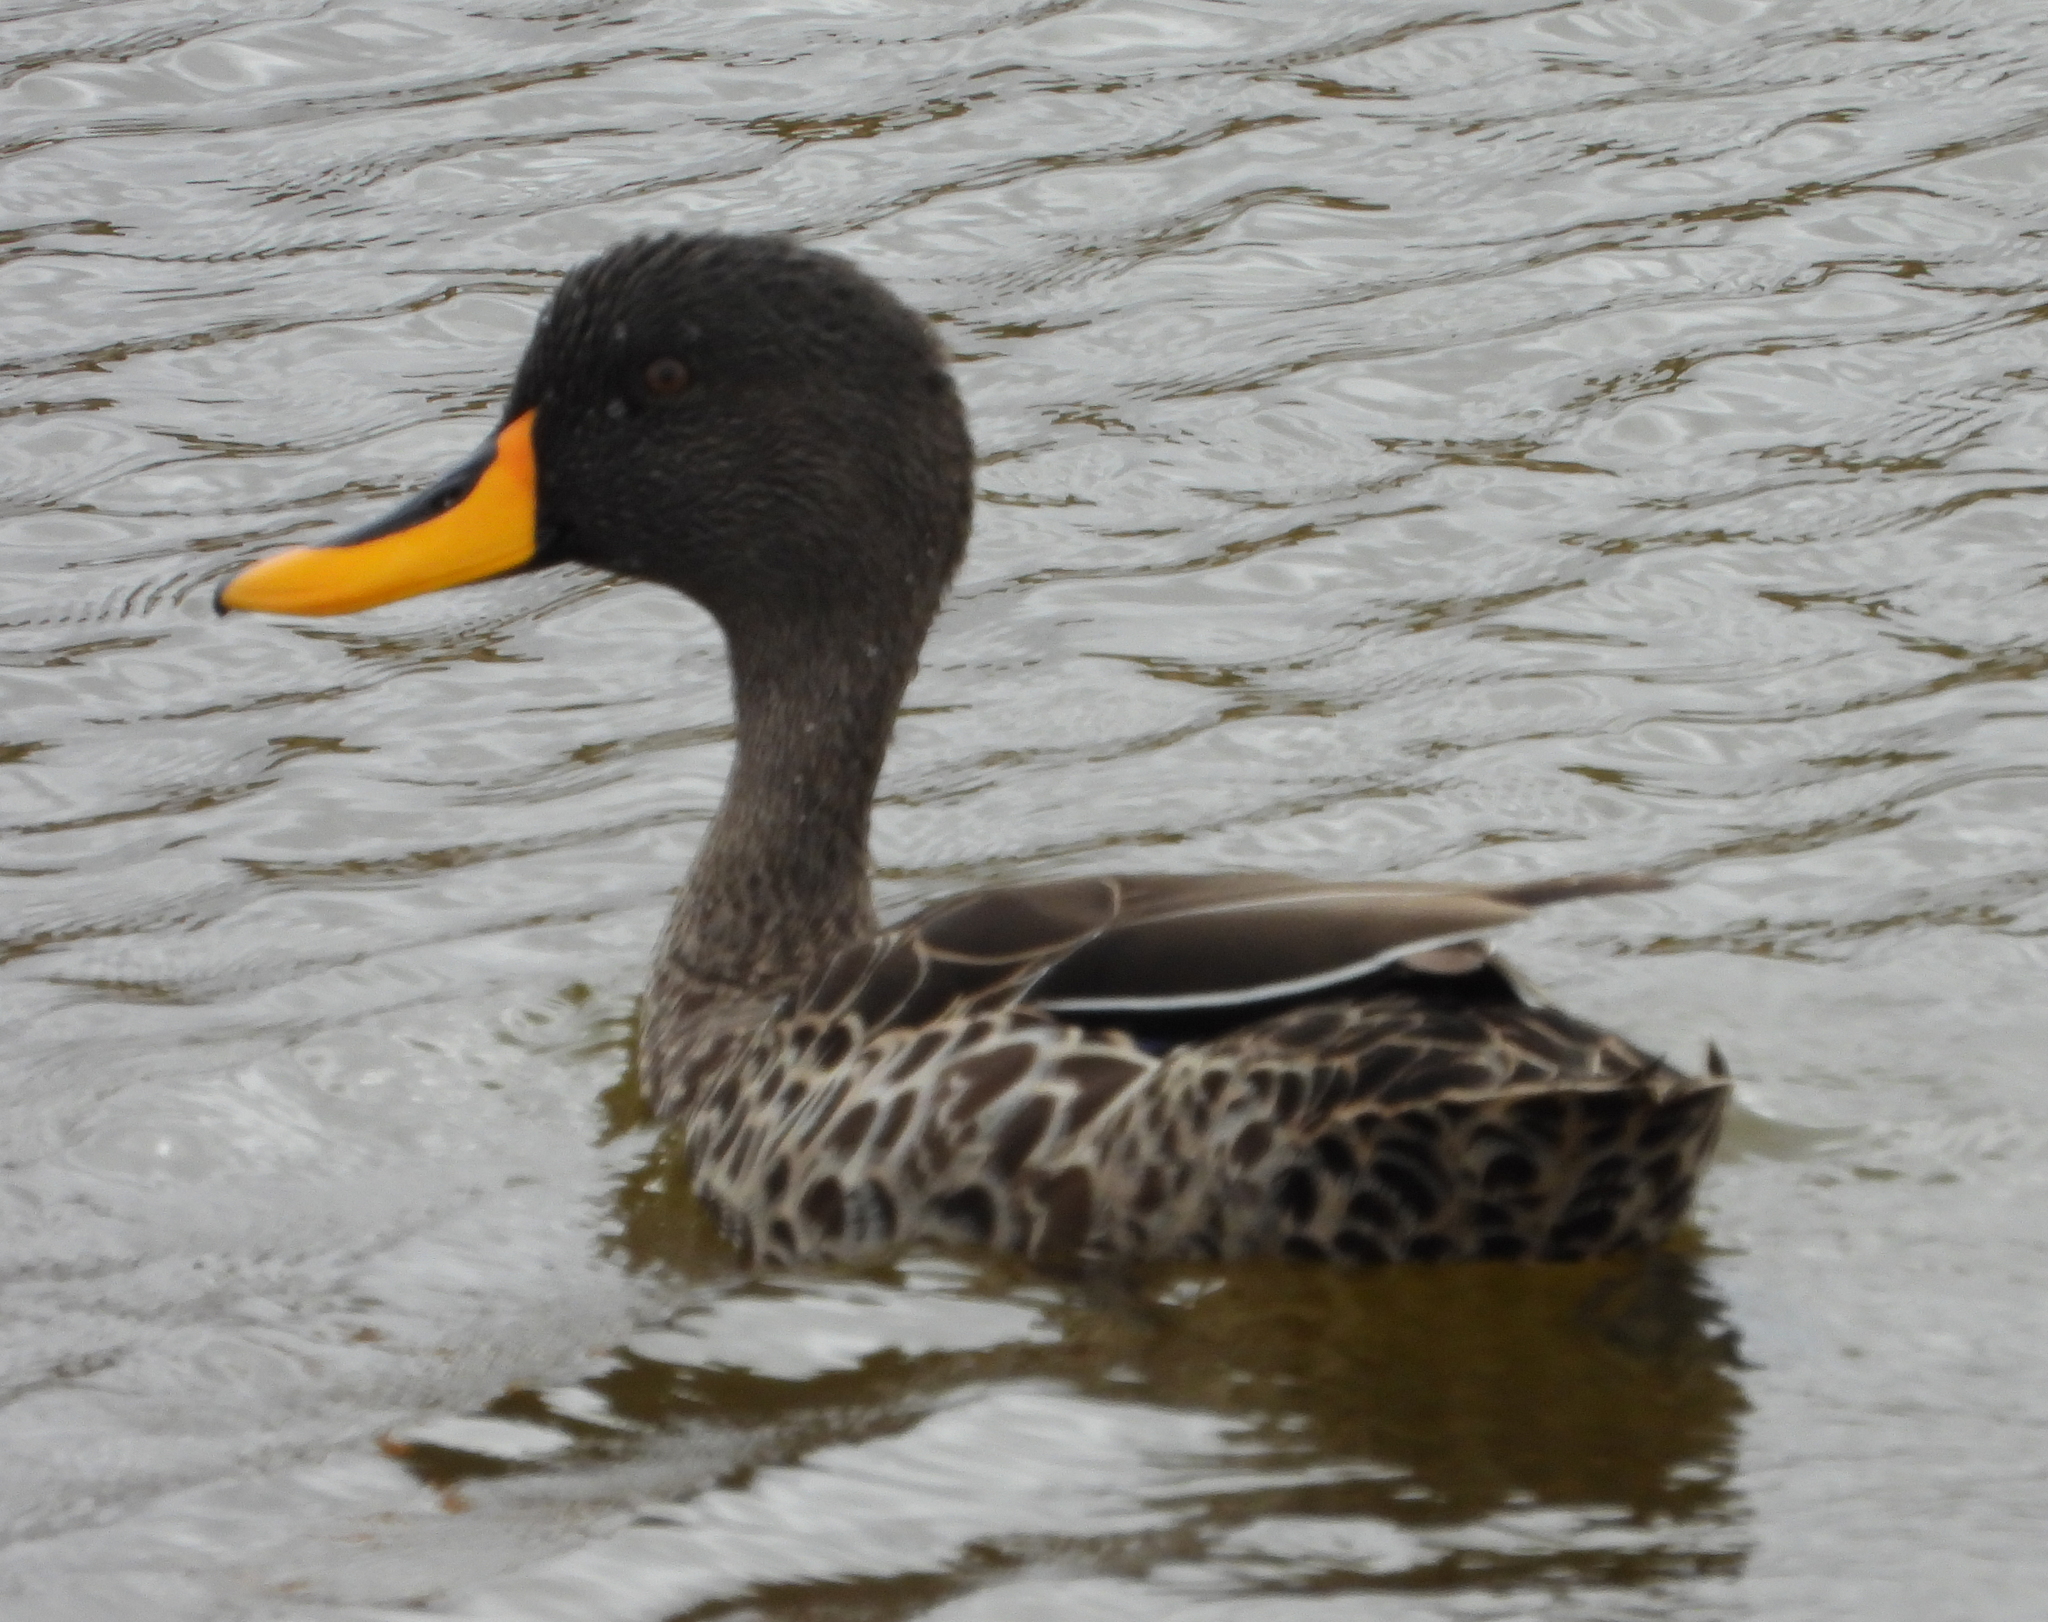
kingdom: Animalia
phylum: Chordata
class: Aves
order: Anseriformes
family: Anatidae
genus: Anas
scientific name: Anas undulata
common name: Yellow-billed duck
